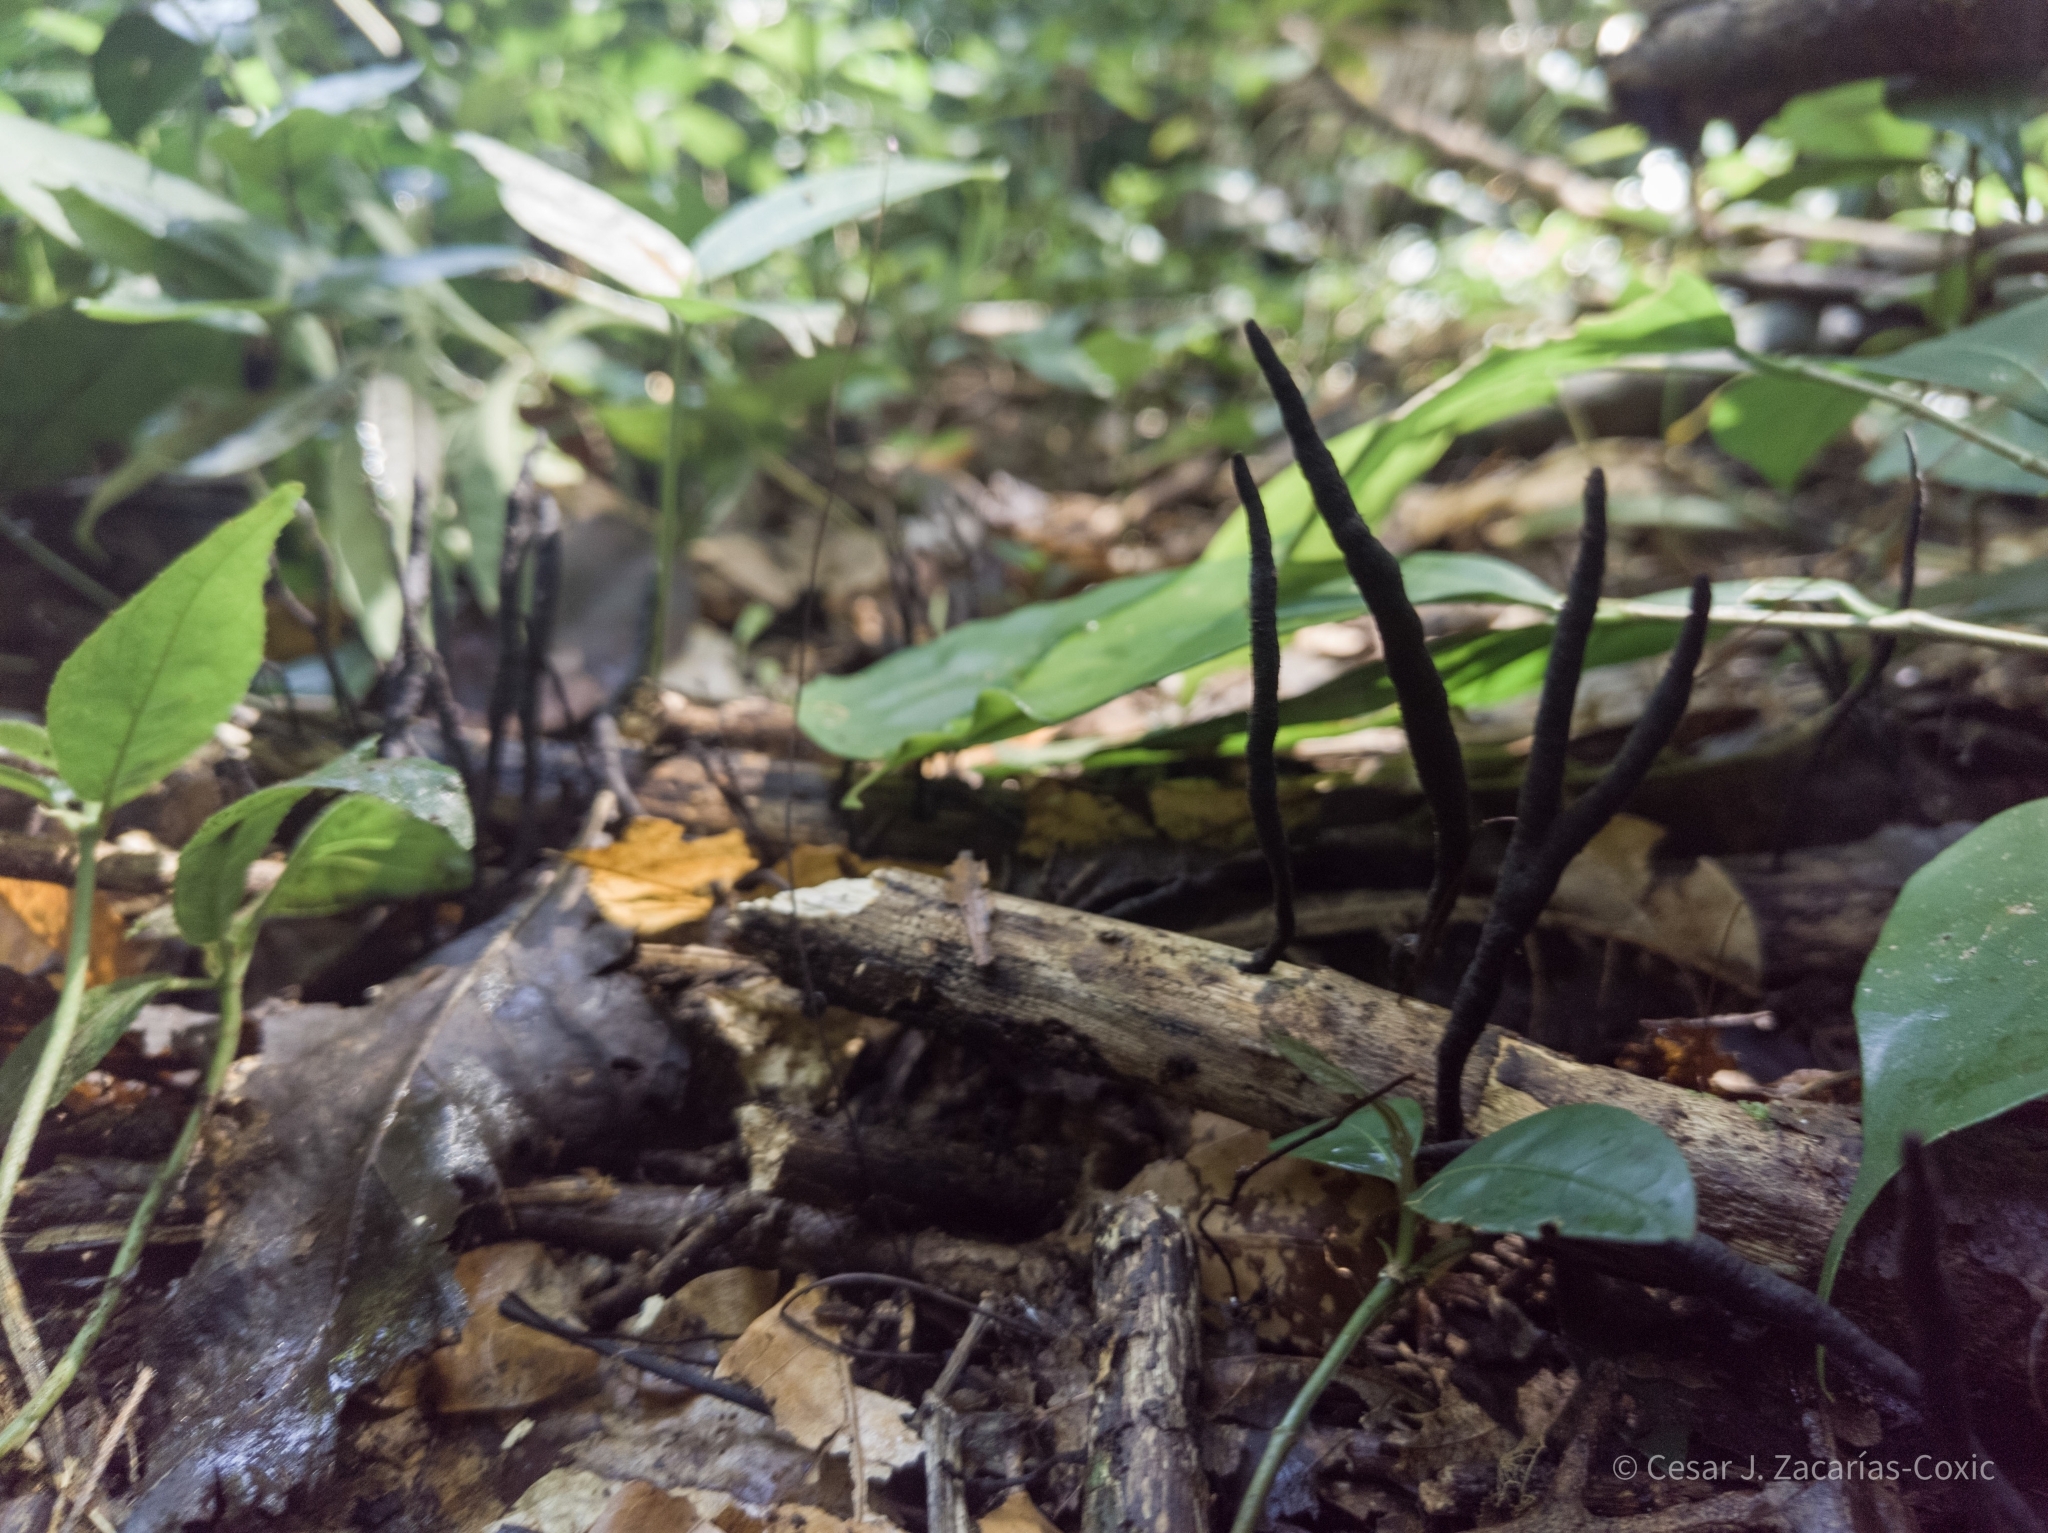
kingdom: Fungi
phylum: Ascomycota
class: Sordariomycetes
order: Hypocreales
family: Ophiocordycipitaceae
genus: Ophiocordyceps
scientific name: Ophiocordyceps robertsii
